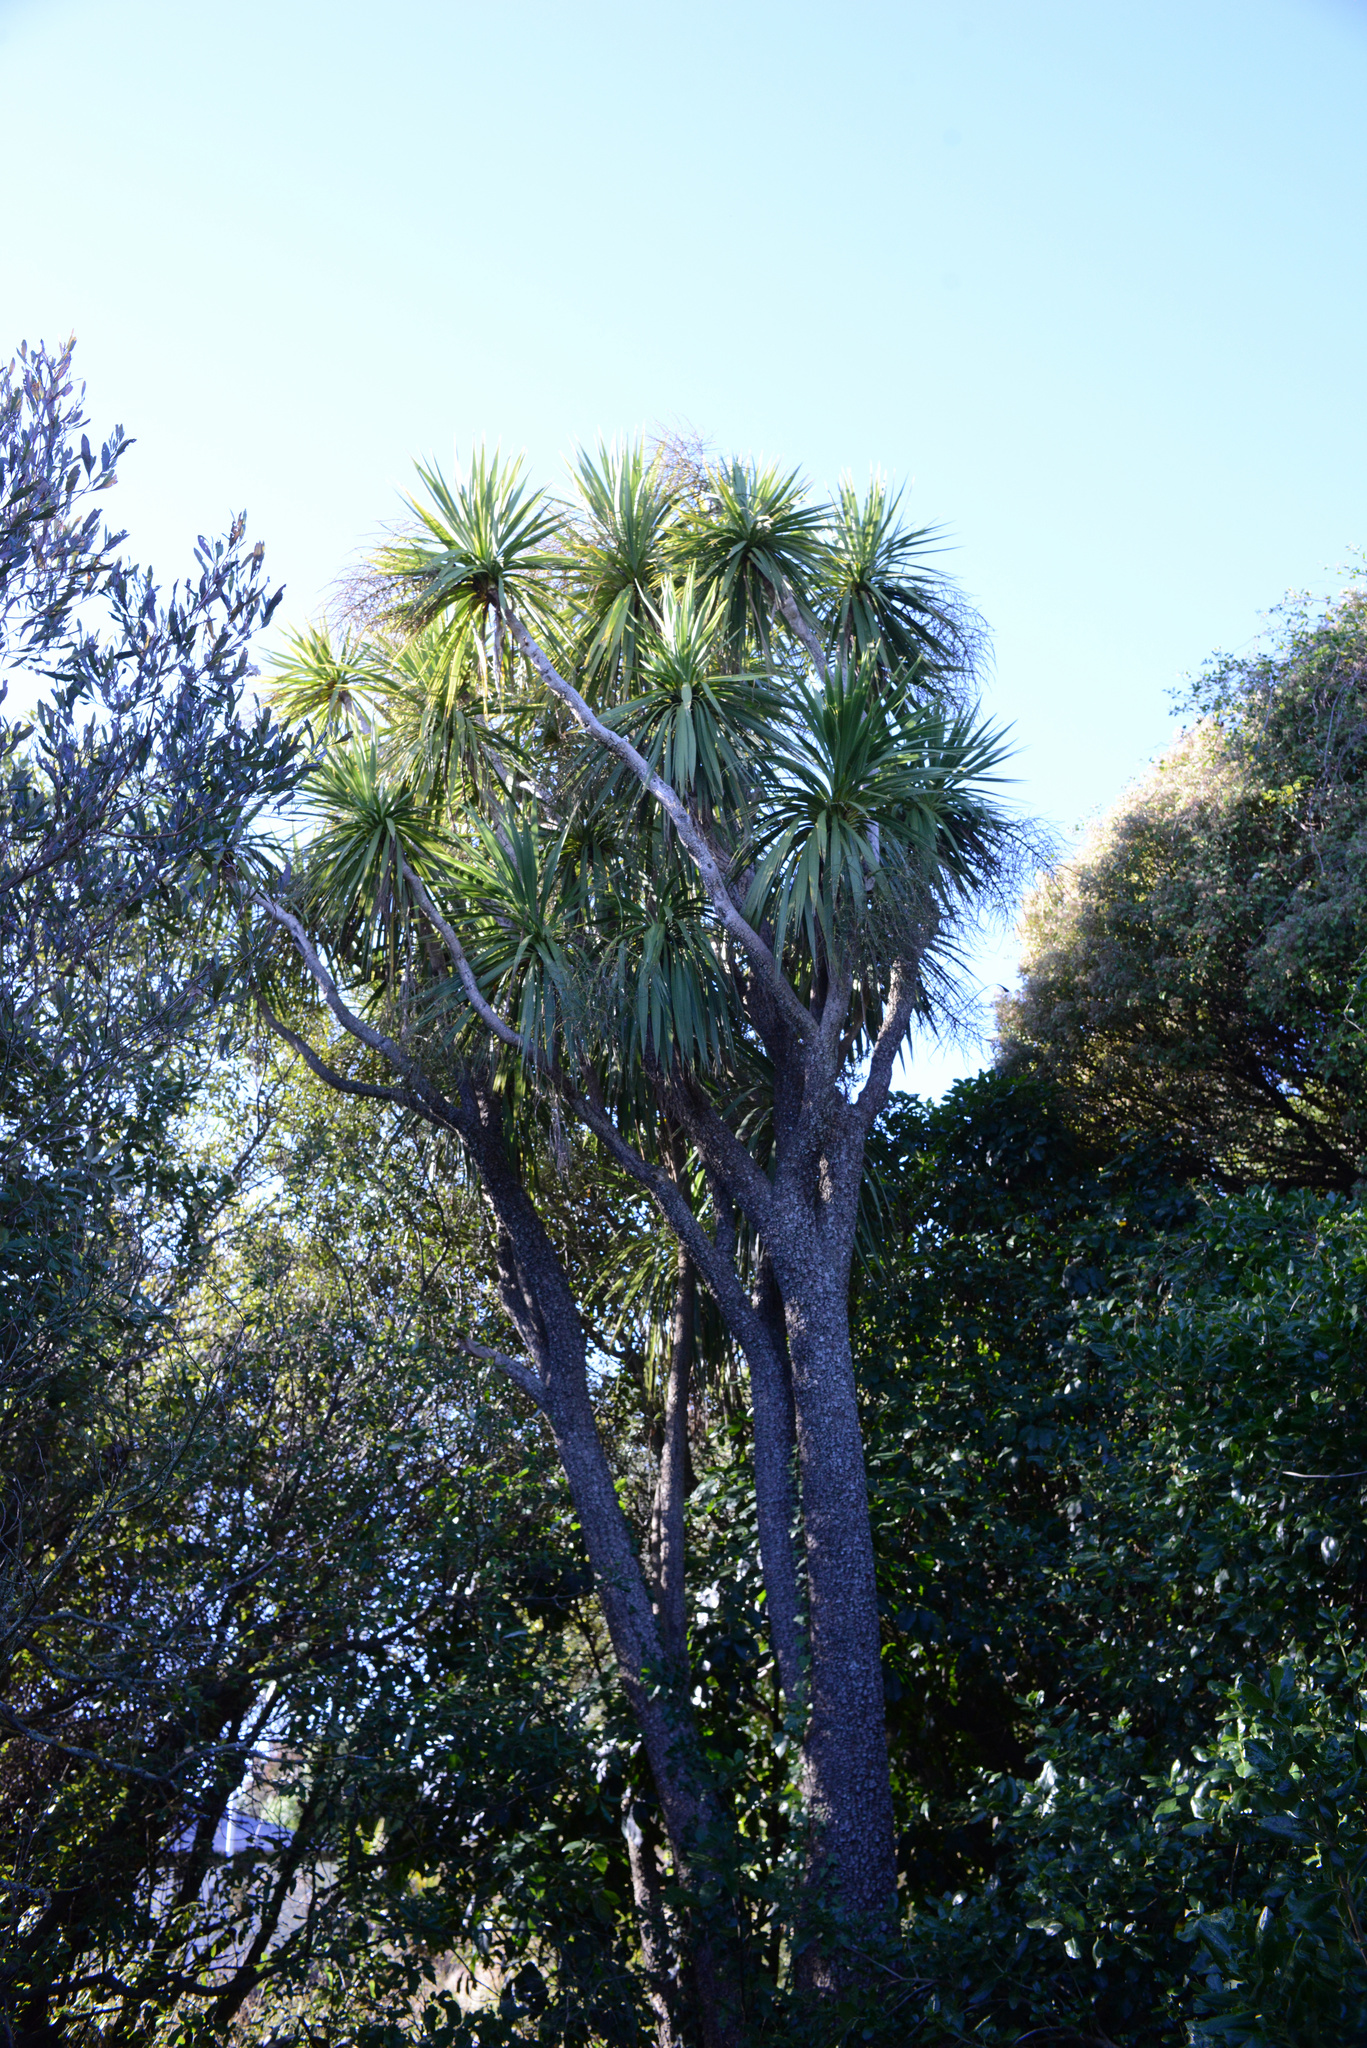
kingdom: Plantae
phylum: Tracheophyta
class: Liliopsida
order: Asparagales
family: Asparagaceae
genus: Cordyline
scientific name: Cordyline australis
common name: Cabbage-palm
